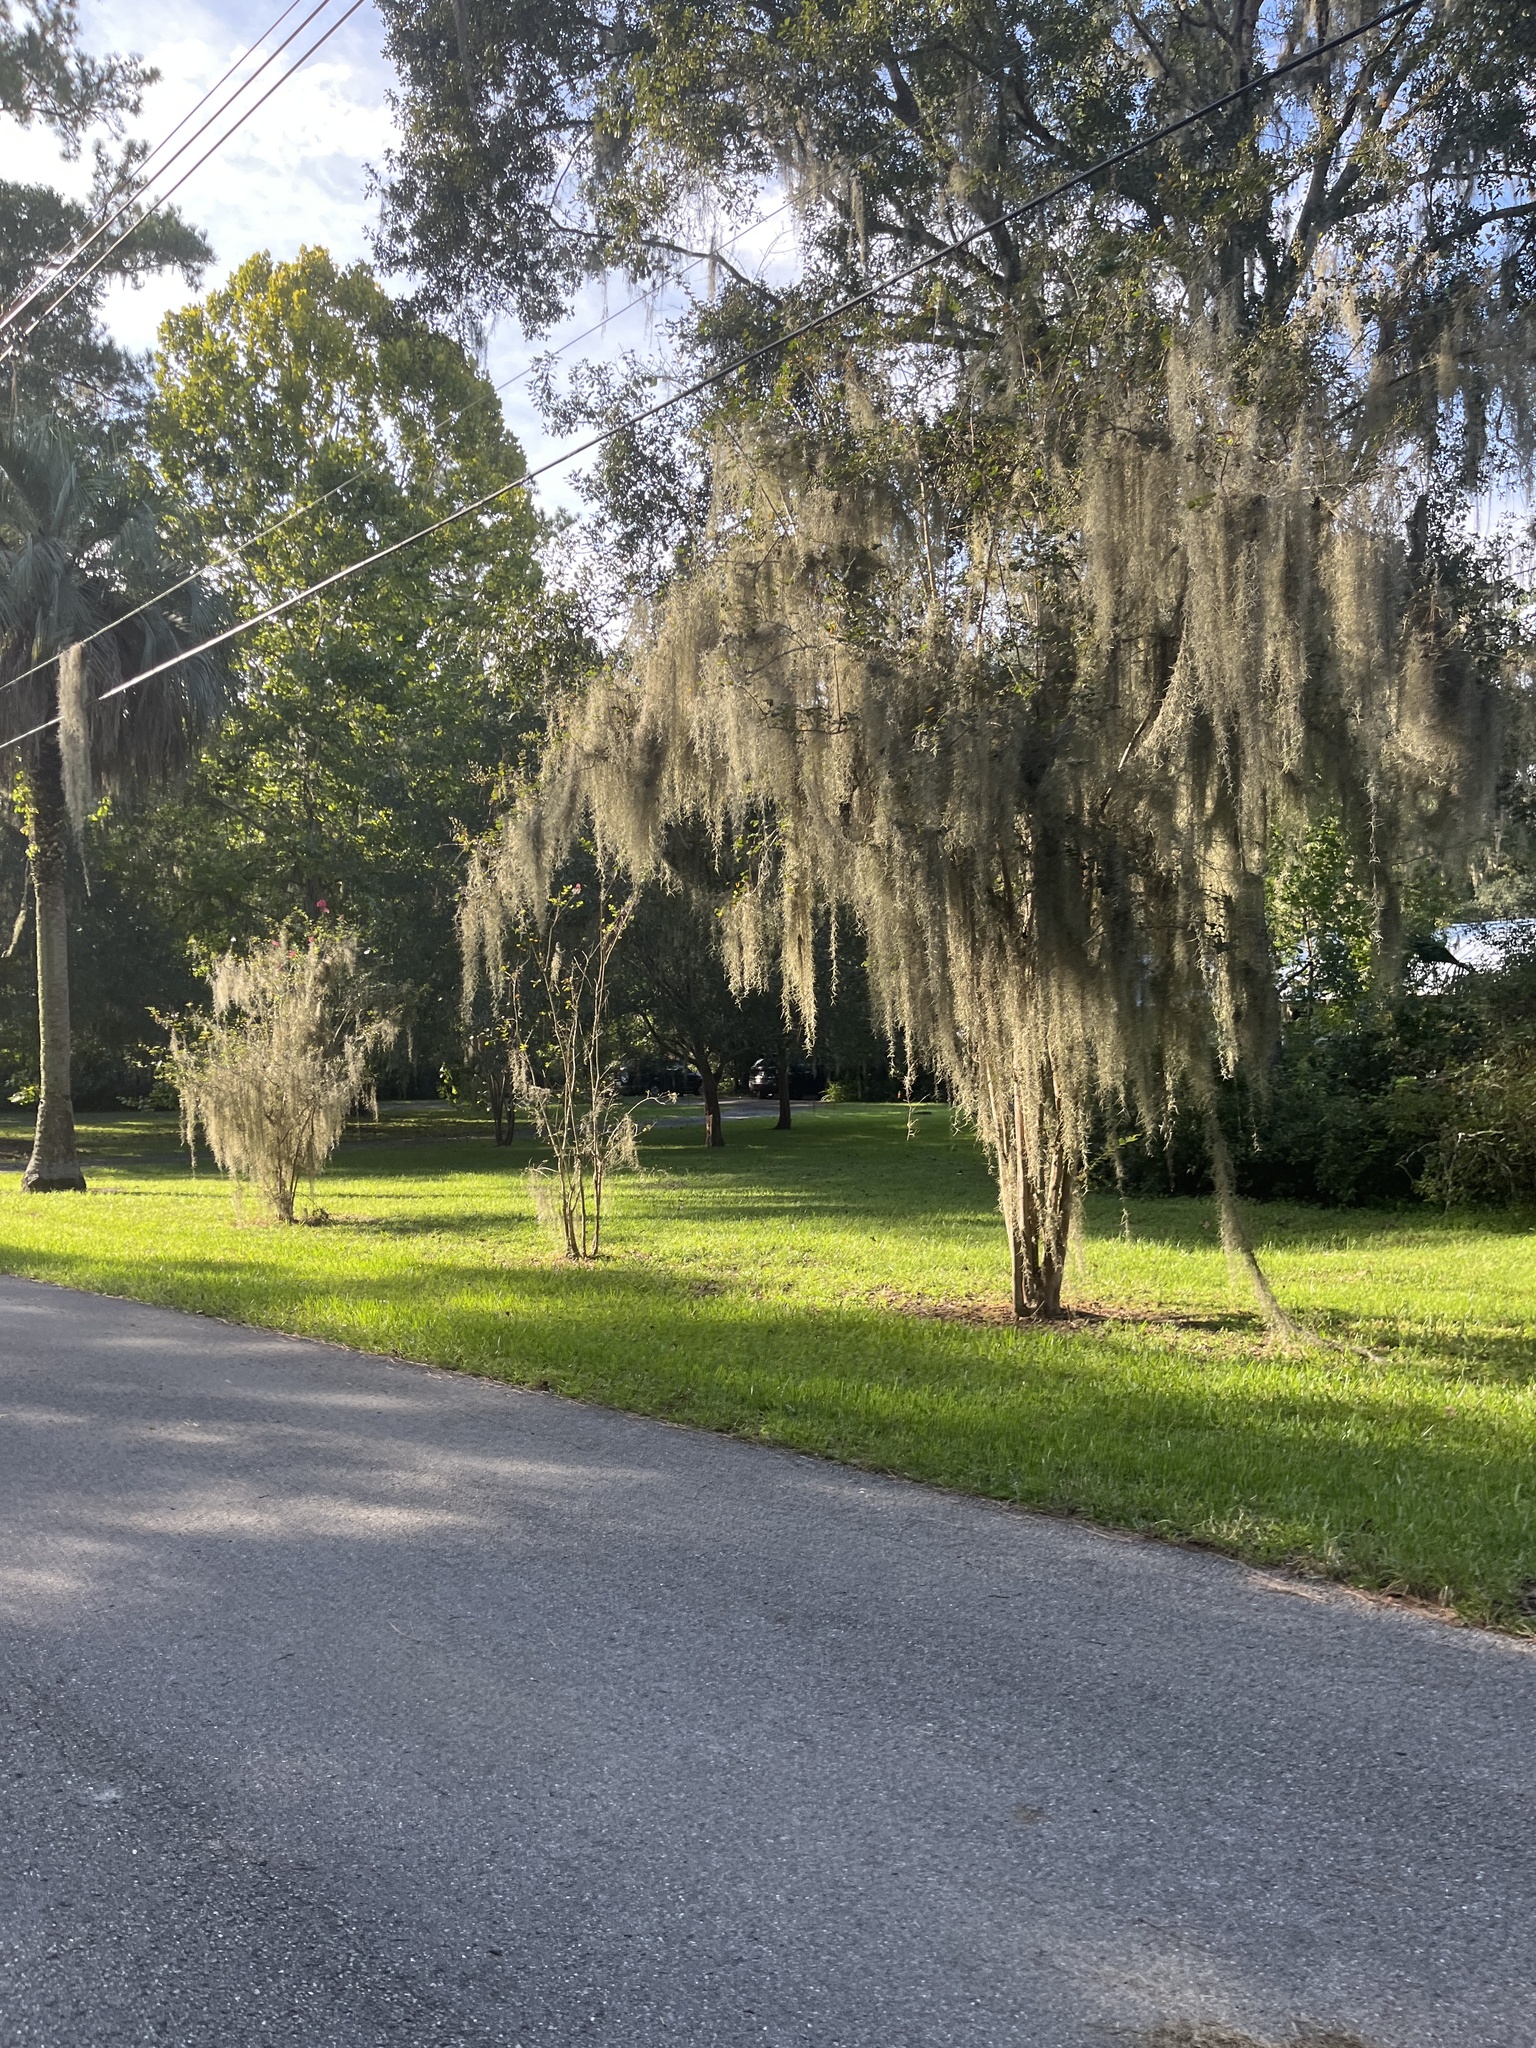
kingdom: Plantae
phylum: Tracheophyta
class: Liliopsida
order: Poales
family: Bromeliaceae
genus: Tillandsia
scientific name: Tillandsia usneoides
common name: Spanish moss
